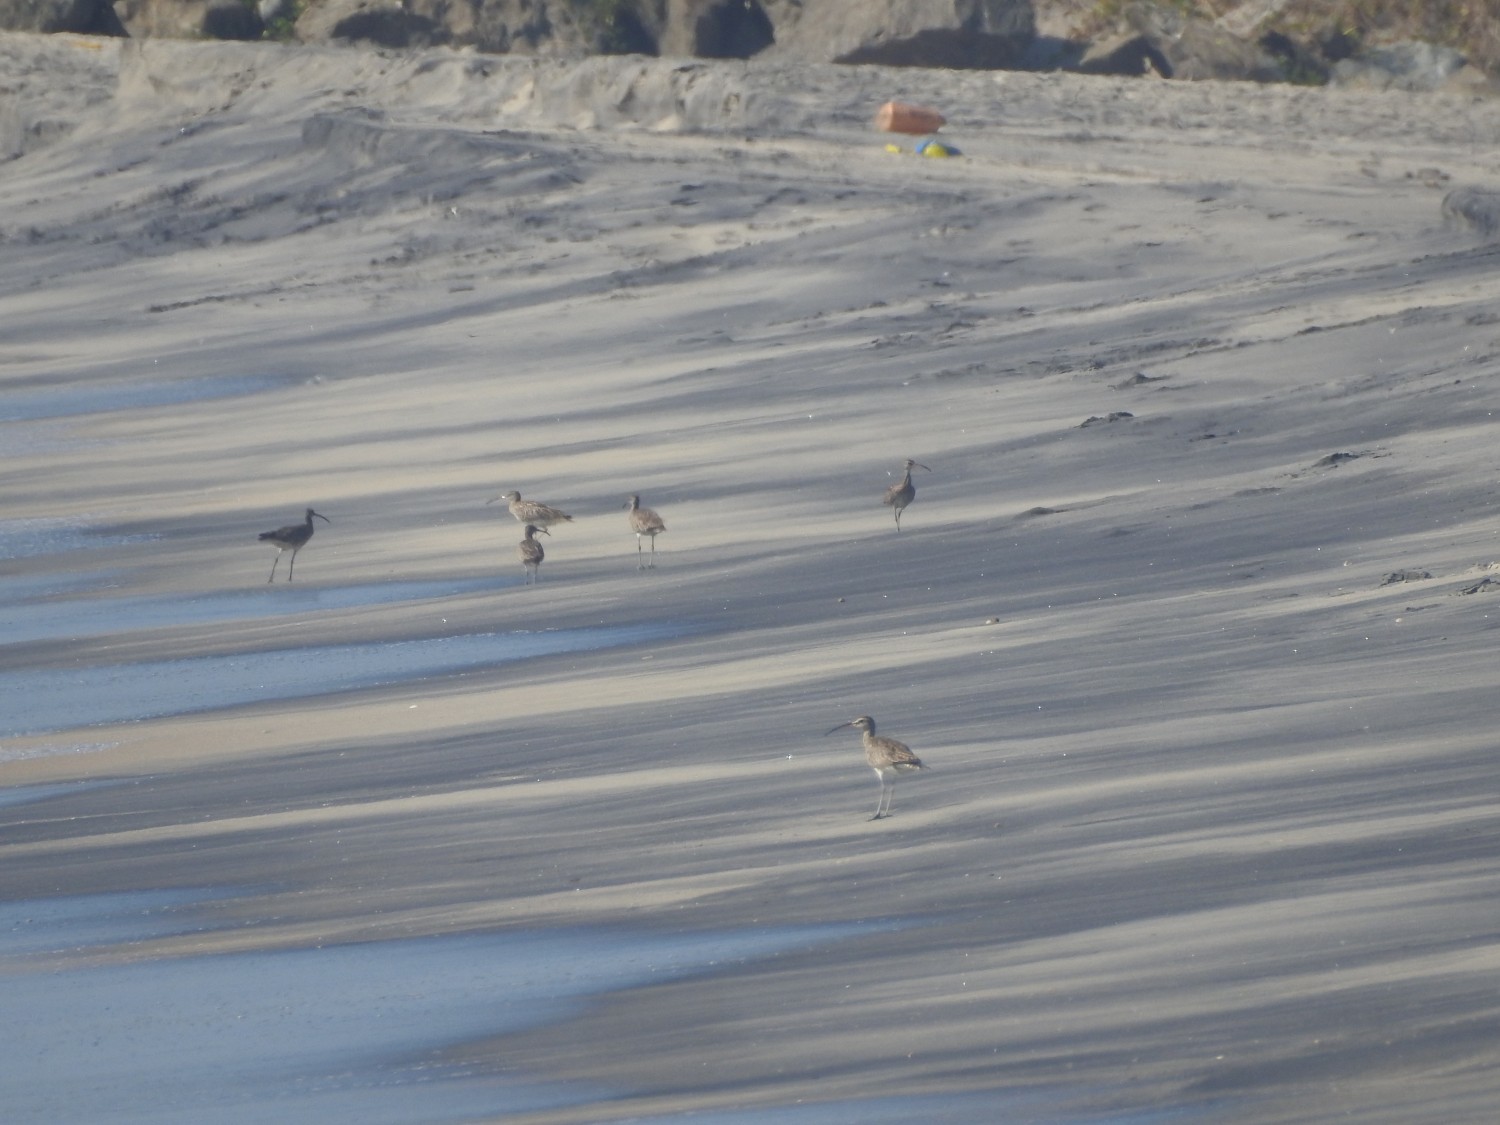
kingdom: Animalia
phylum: Chordata
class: Aves
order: Charadriiformes
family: Scolopacidae
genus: Numenius
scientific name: Numenius phaeopus
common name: Whimbrel
